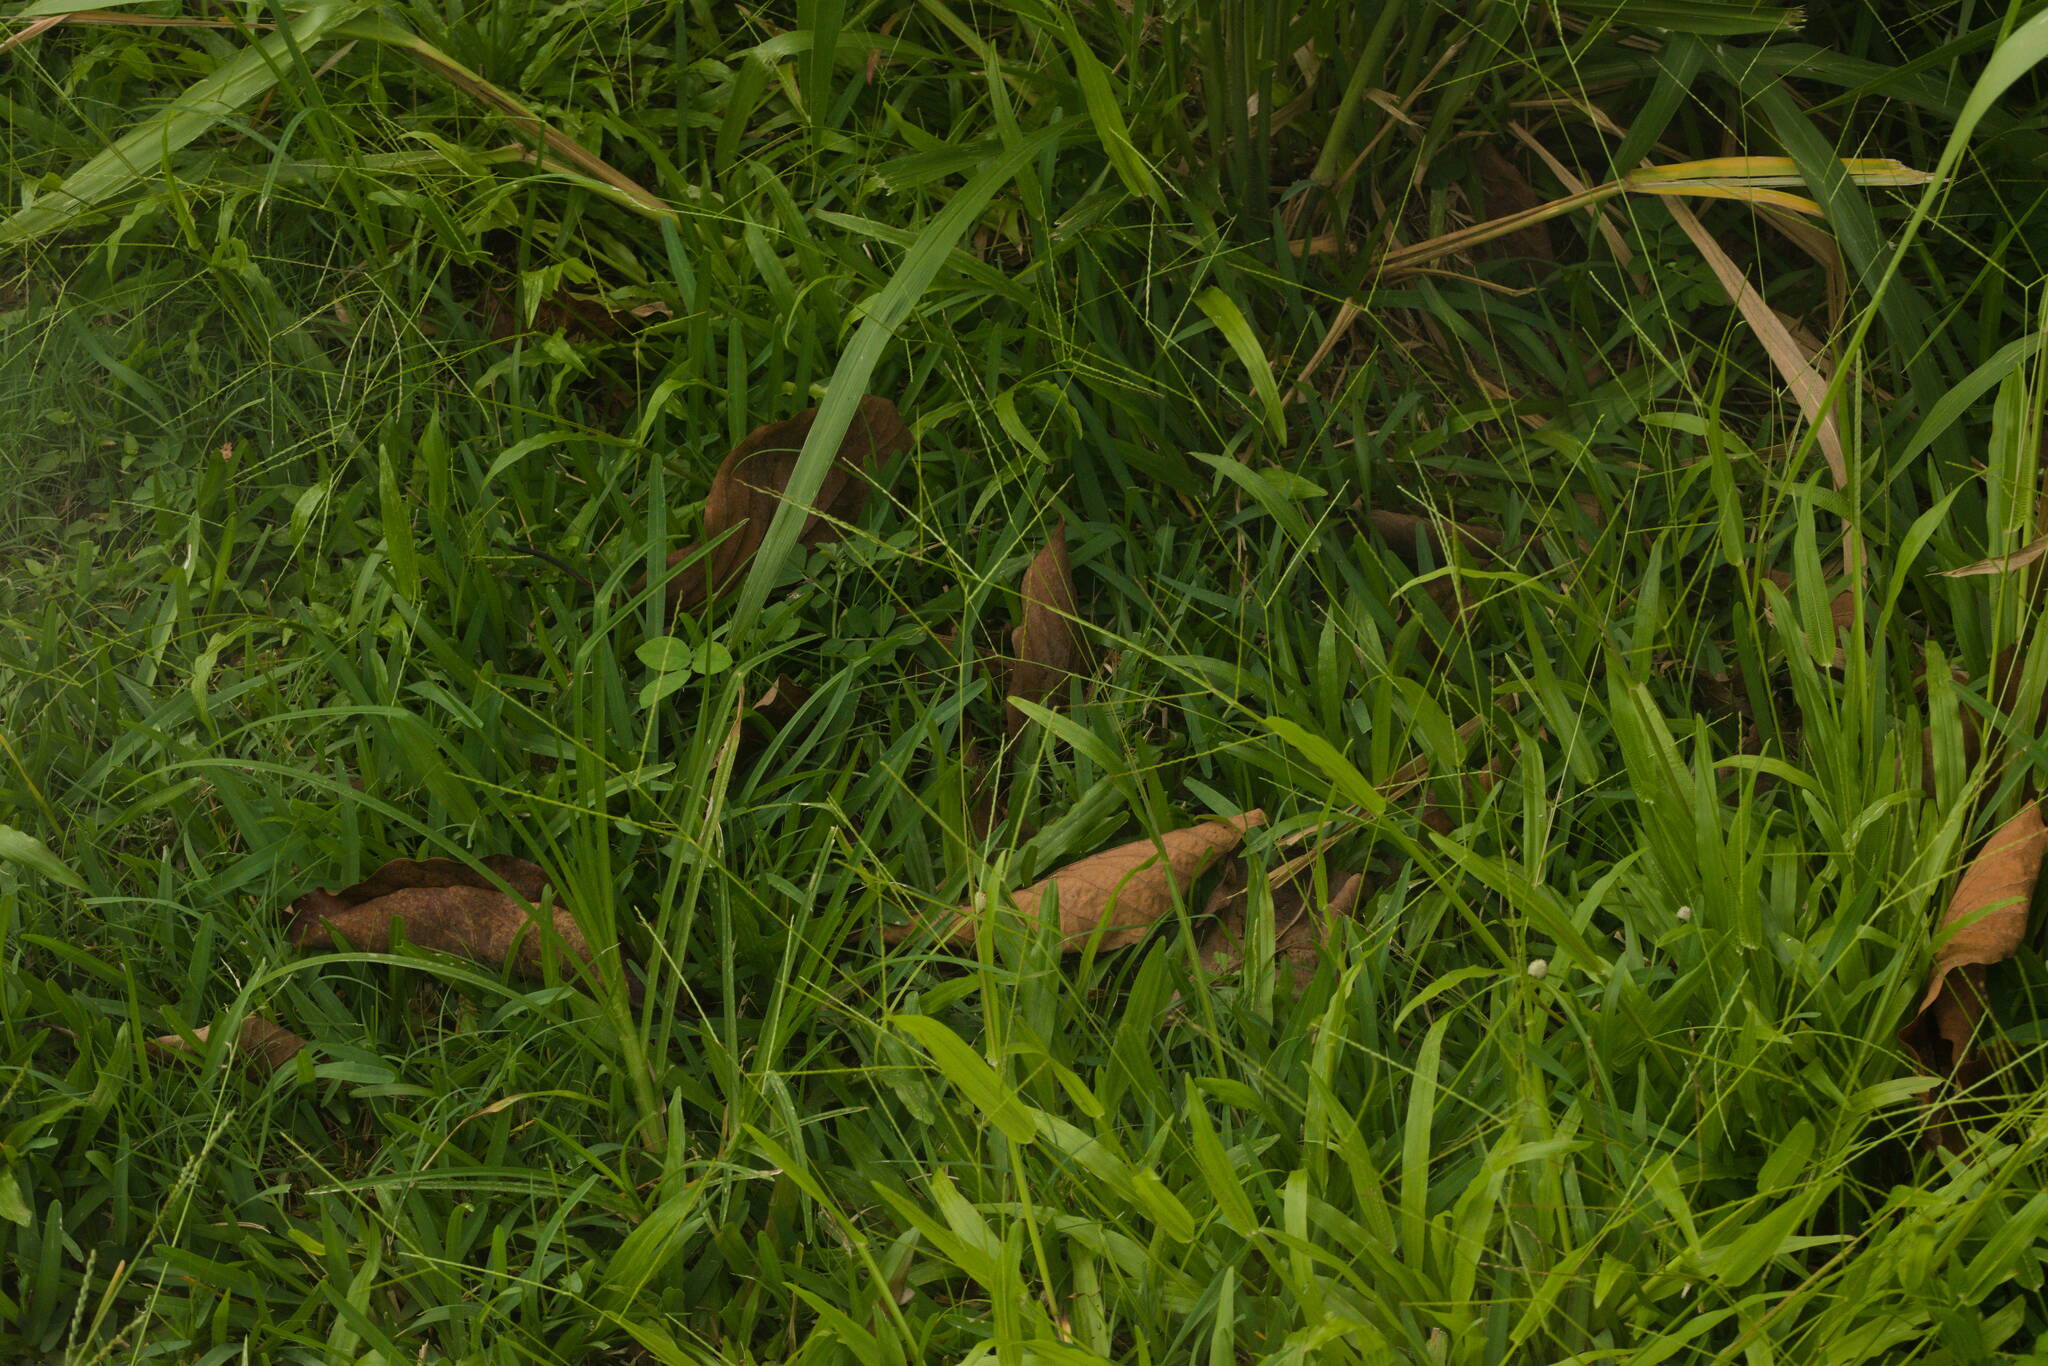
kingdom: Plantae
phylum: Tracheophyta
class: Liliopsida
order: Poales
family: Poaceae
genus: Axonopus
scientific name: Axonopus compressus
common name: American carpet grass
